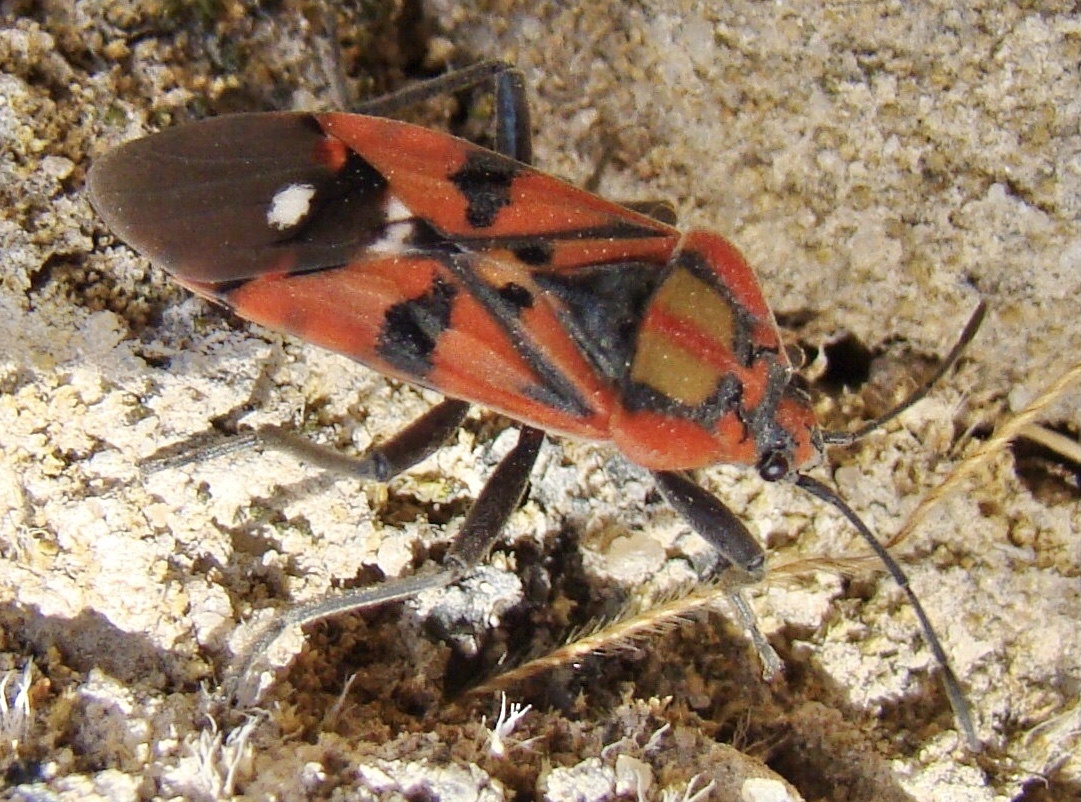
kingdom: Animalia
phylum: Arthropoda
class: Insecta
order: Hemiptera
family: Lygaeidae
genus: Spilostethus
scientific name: Spilostethus pandurus
